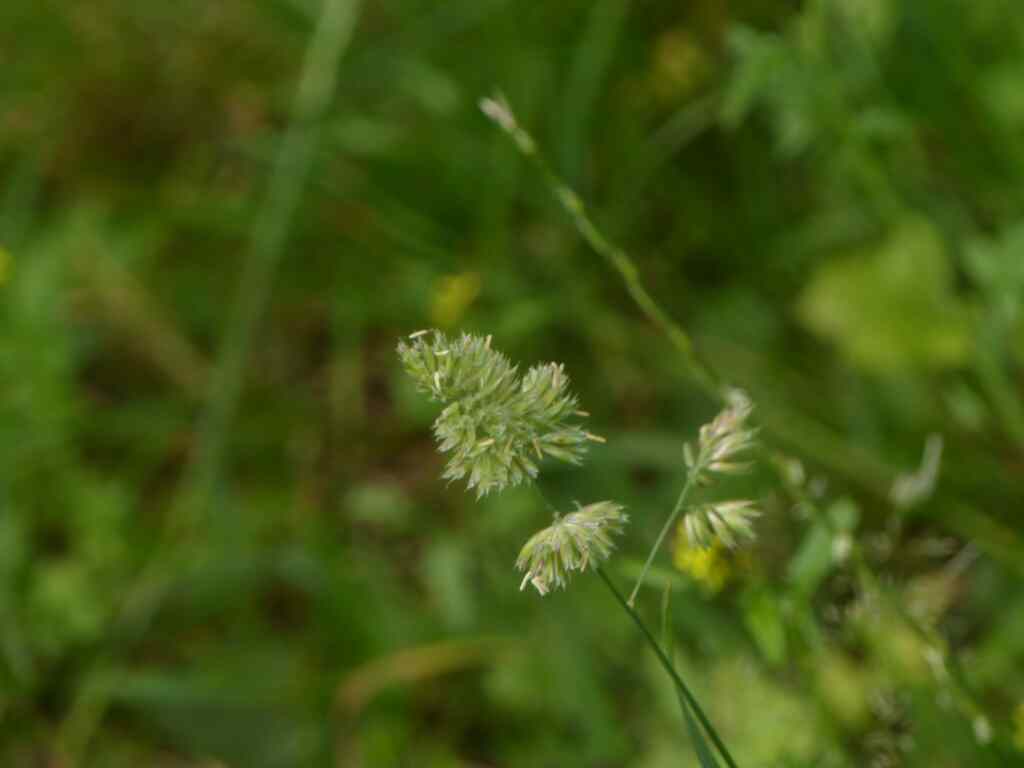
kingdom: Plantae
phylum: Tracheophyta
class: Liliopsida
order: Poales
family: Poaceae
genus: Dactylis
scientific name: Dactylis glomerata
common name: Orchardgrass
